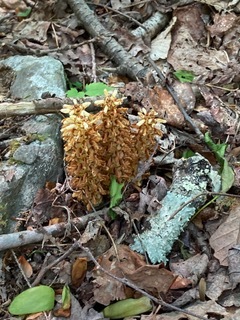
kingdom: Plantae
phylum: Tracheophyta
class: Magnoliopsida
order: Lamiales
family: Orobanchaceae
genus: Conopholis
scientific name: Conopholis americana
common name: American cancer-root
